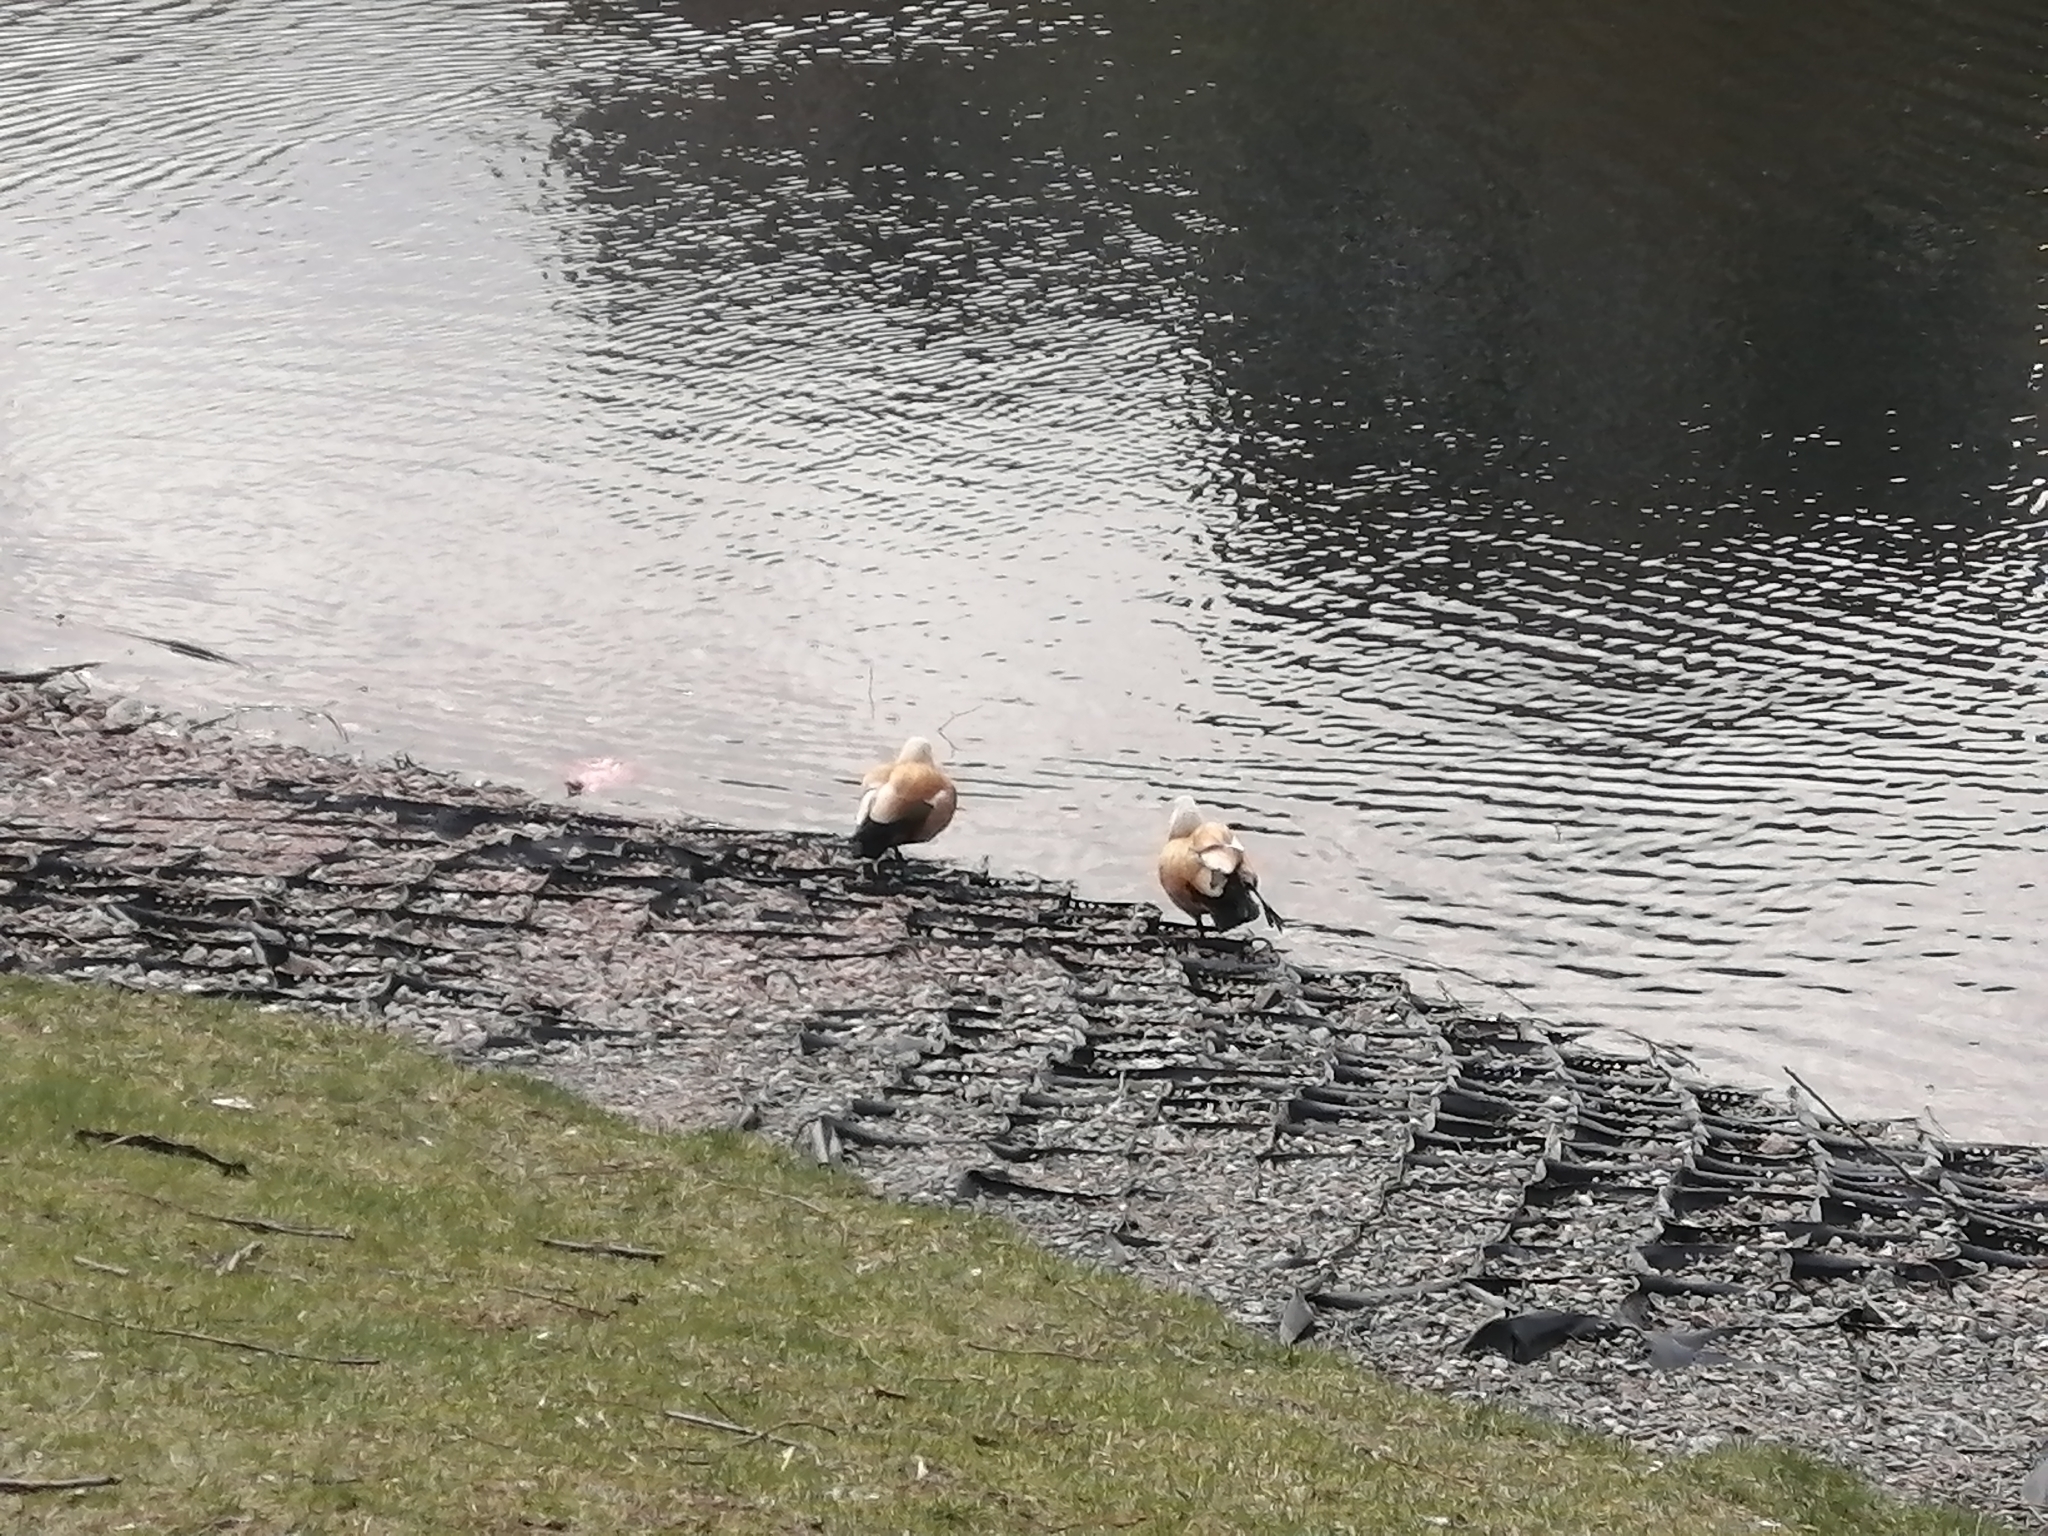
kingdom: Animalia
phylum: Chordata
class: Aves
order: Anseriformes
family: Anatidae
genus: Tadorna
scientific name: Tadorna ferruginea
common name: Ruddy shelduck
